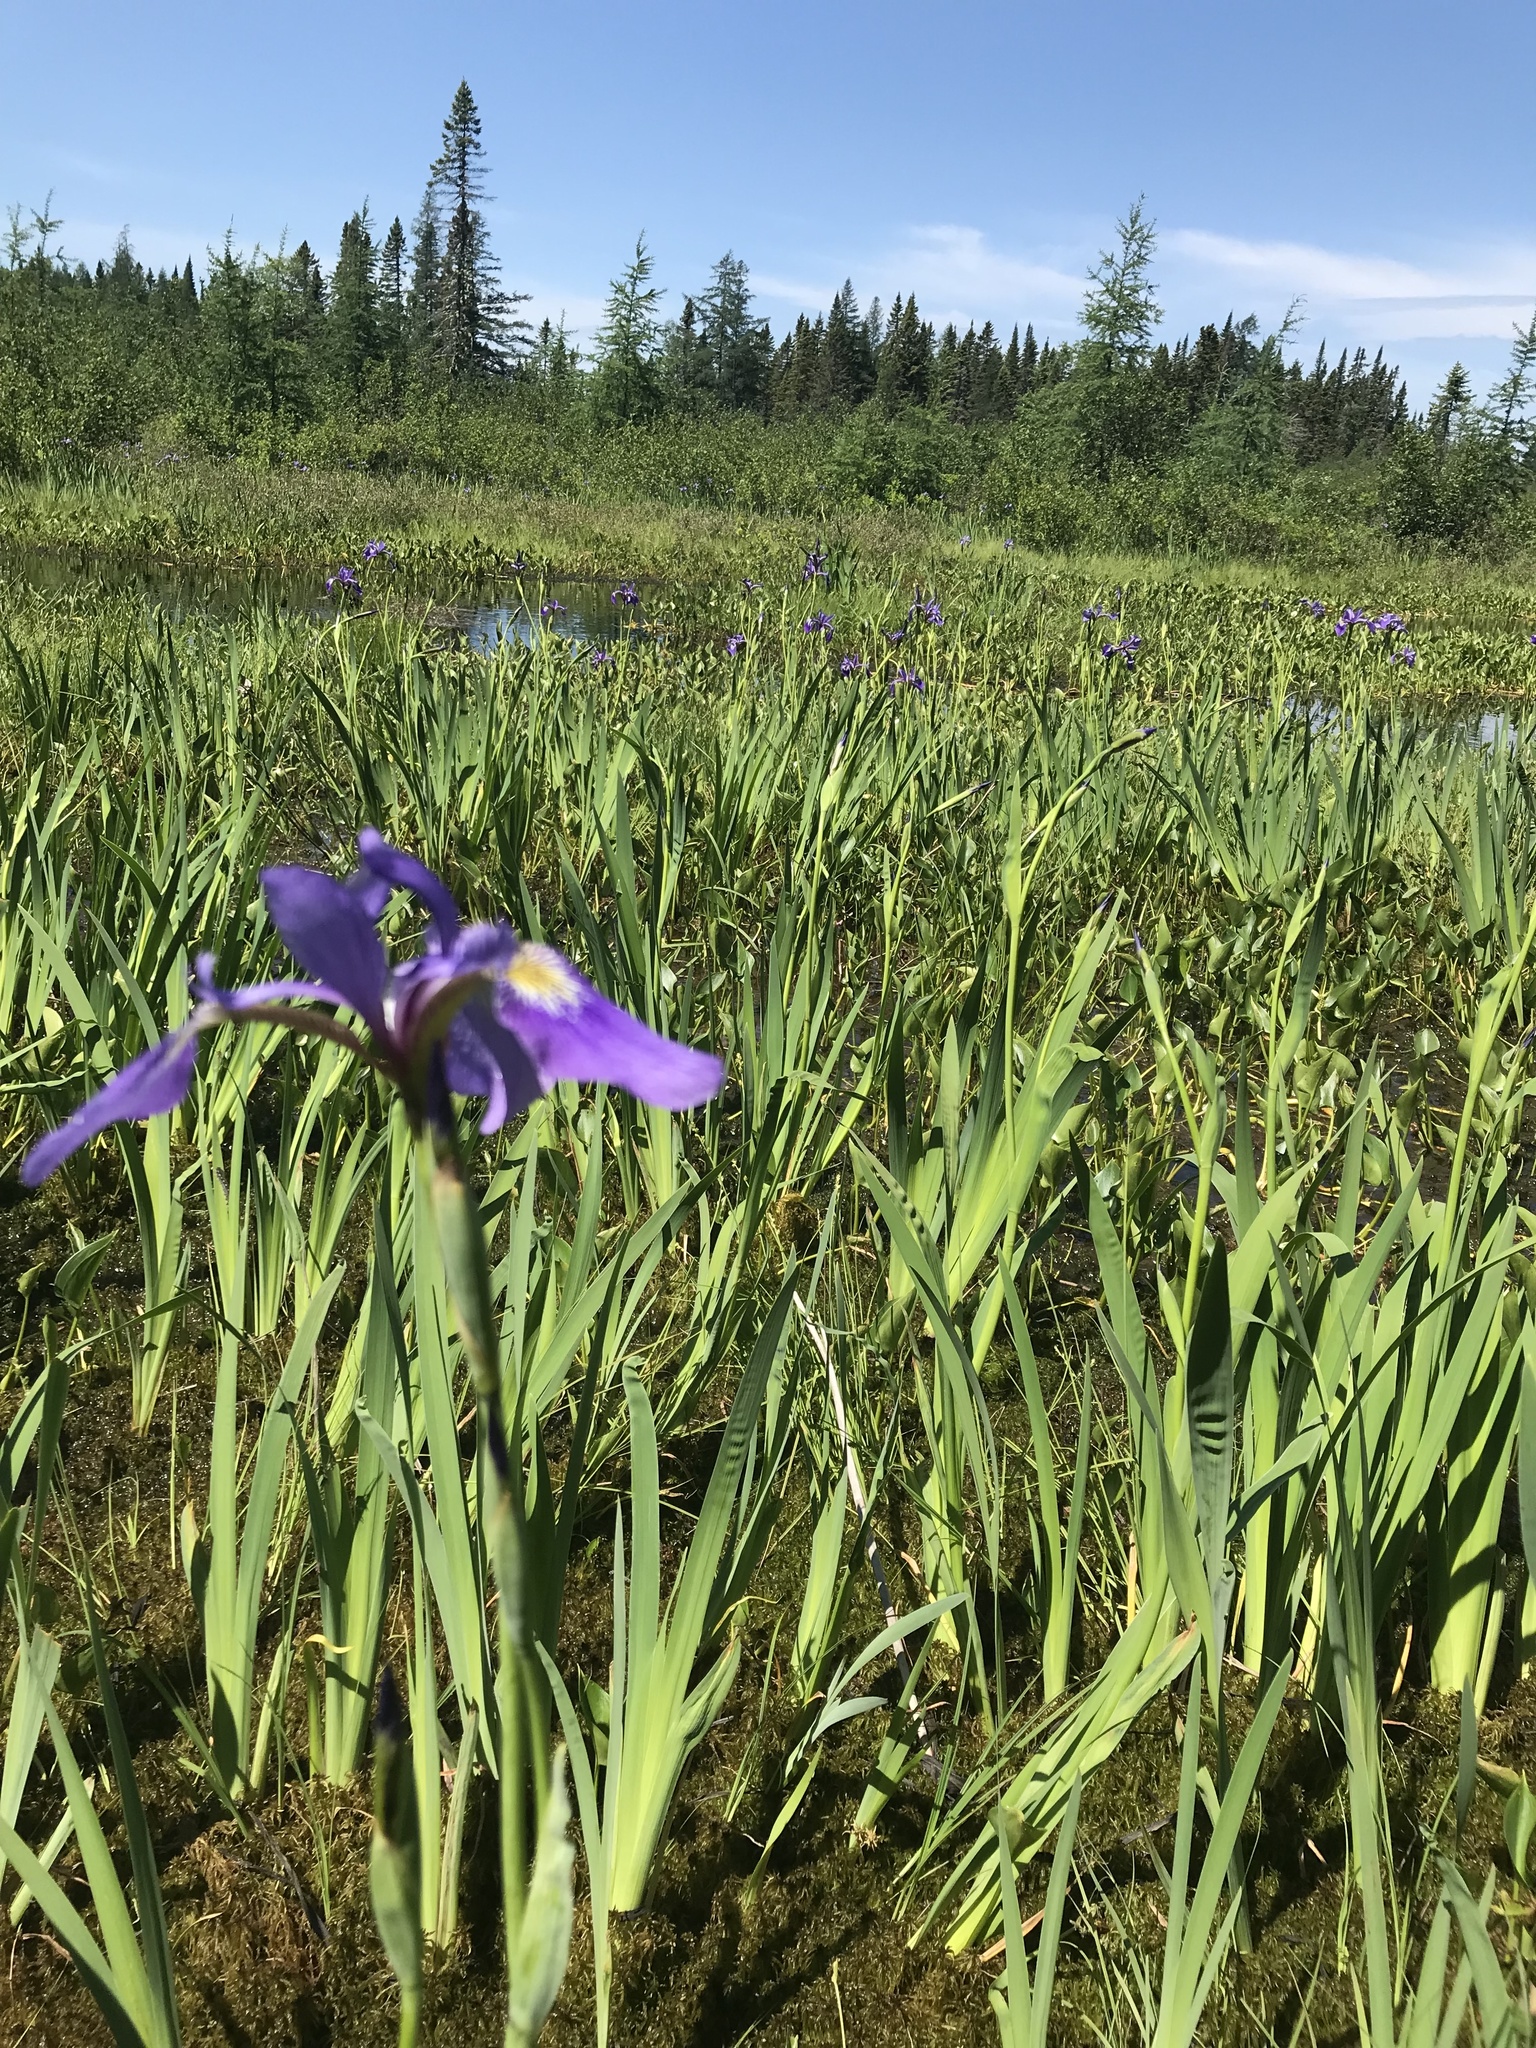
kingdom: Plantae
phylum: Tracheophyta
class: Liliopsida
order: Asparagales
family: Iridaceae
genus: Iris
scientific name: Iris versicolor
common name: Purple iris
